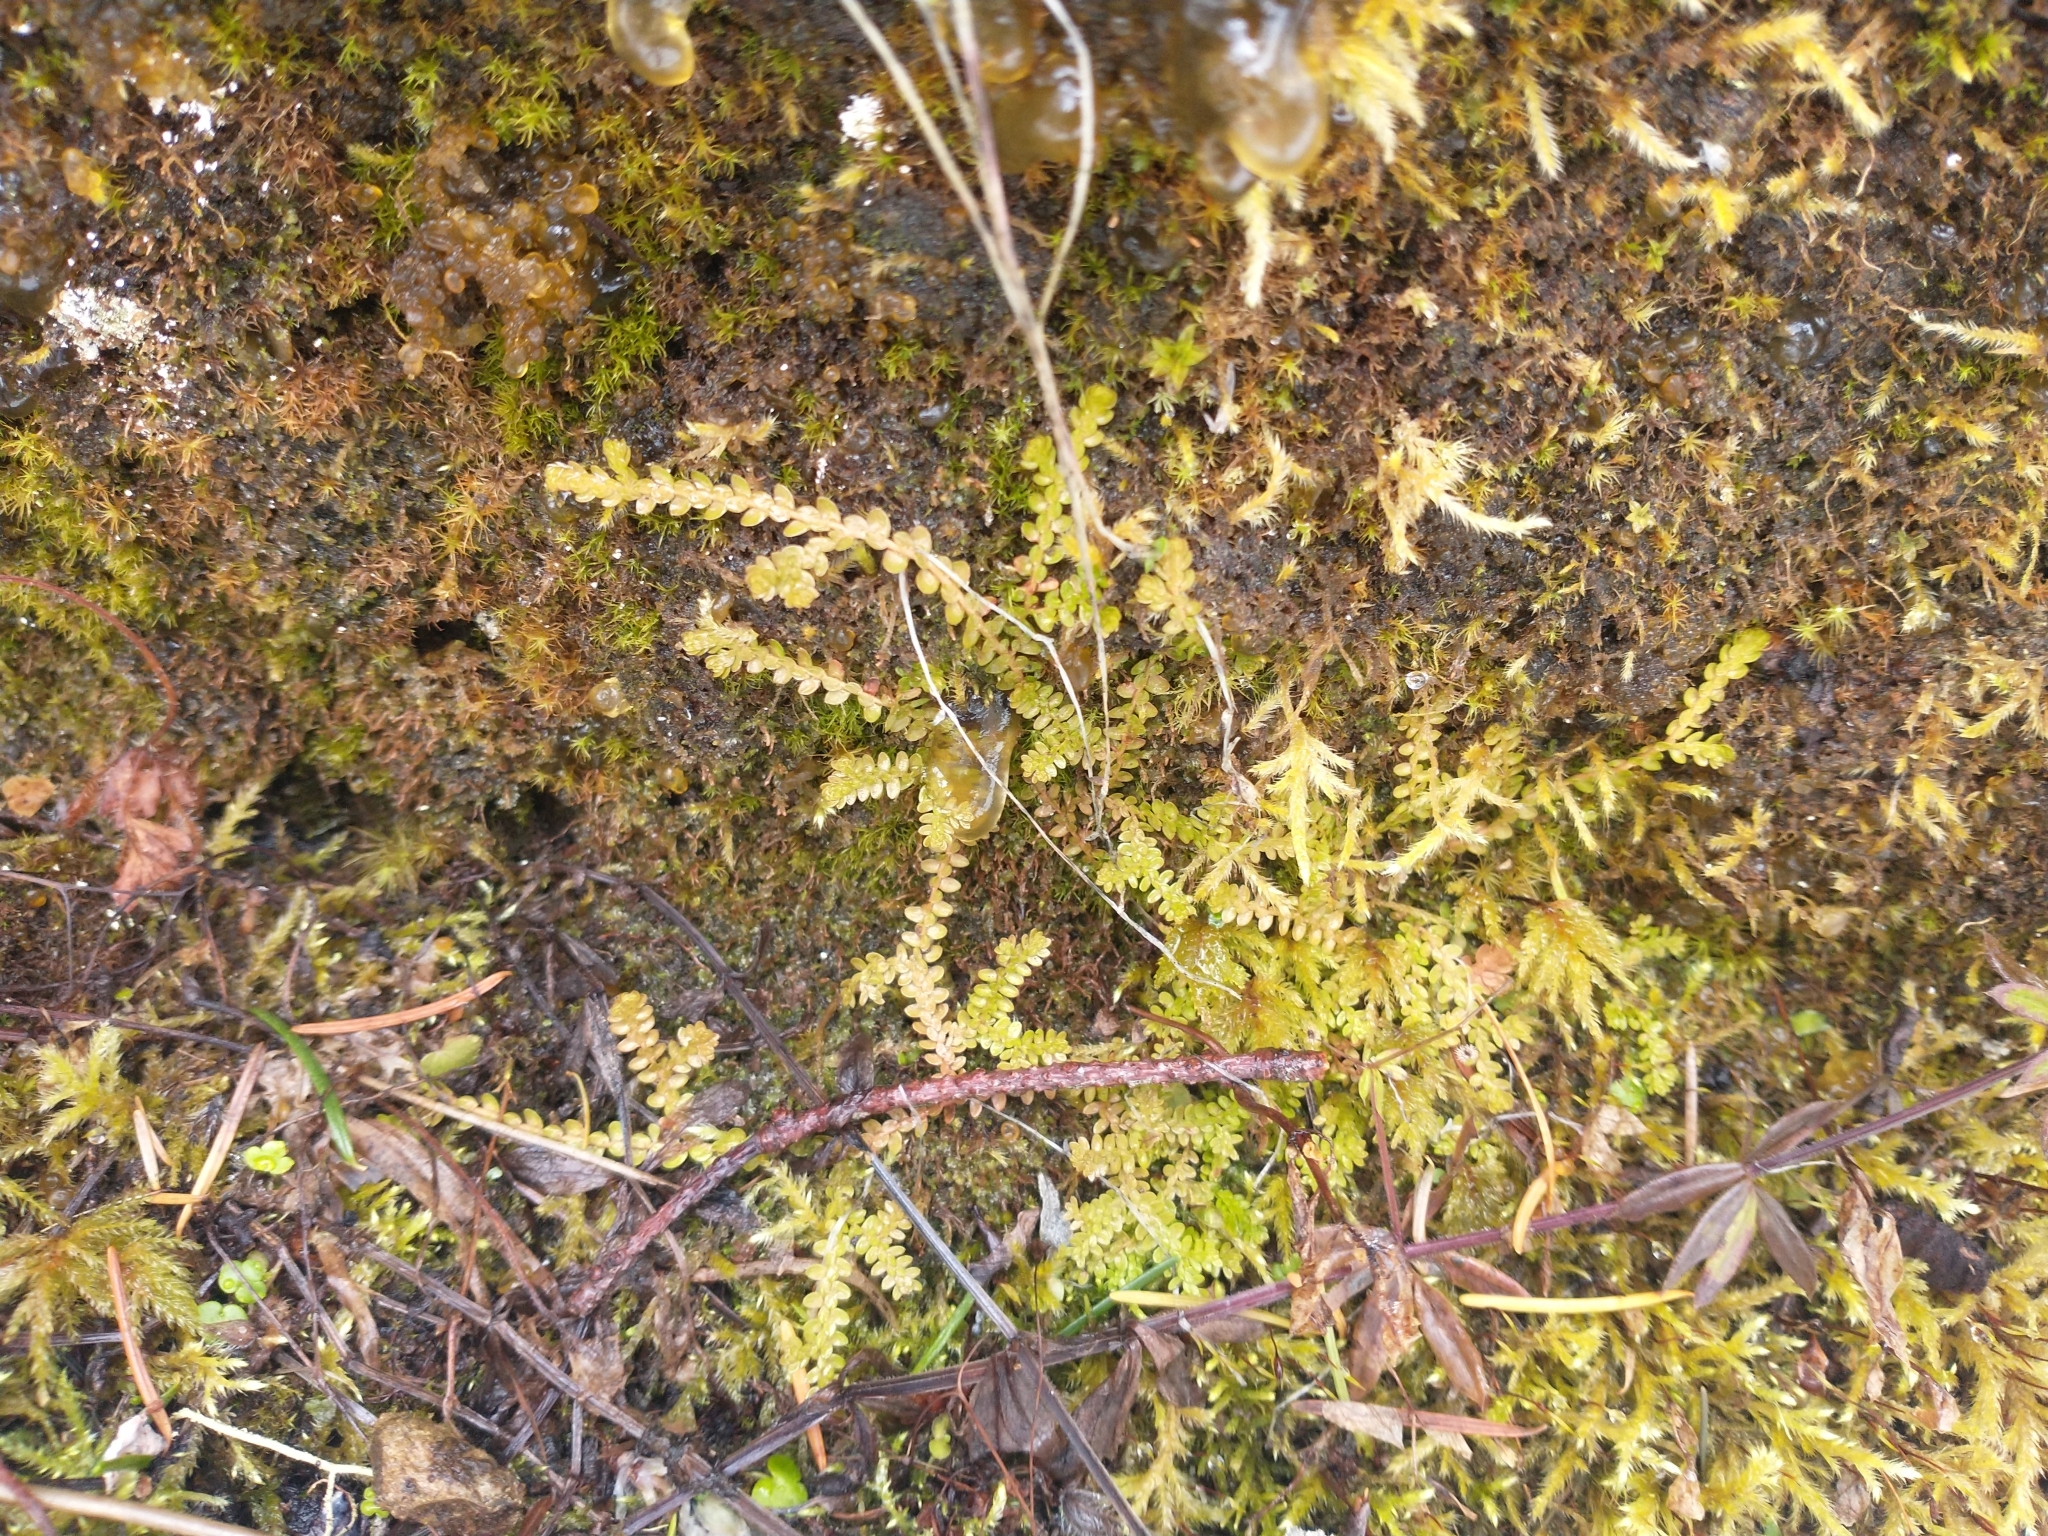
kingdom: Plantae
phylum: Tracheophyta
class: Lycopodiopsida
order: Selaginellales
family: Selaginellaceae
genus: Selaginella
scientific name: Selaginella douglasii
